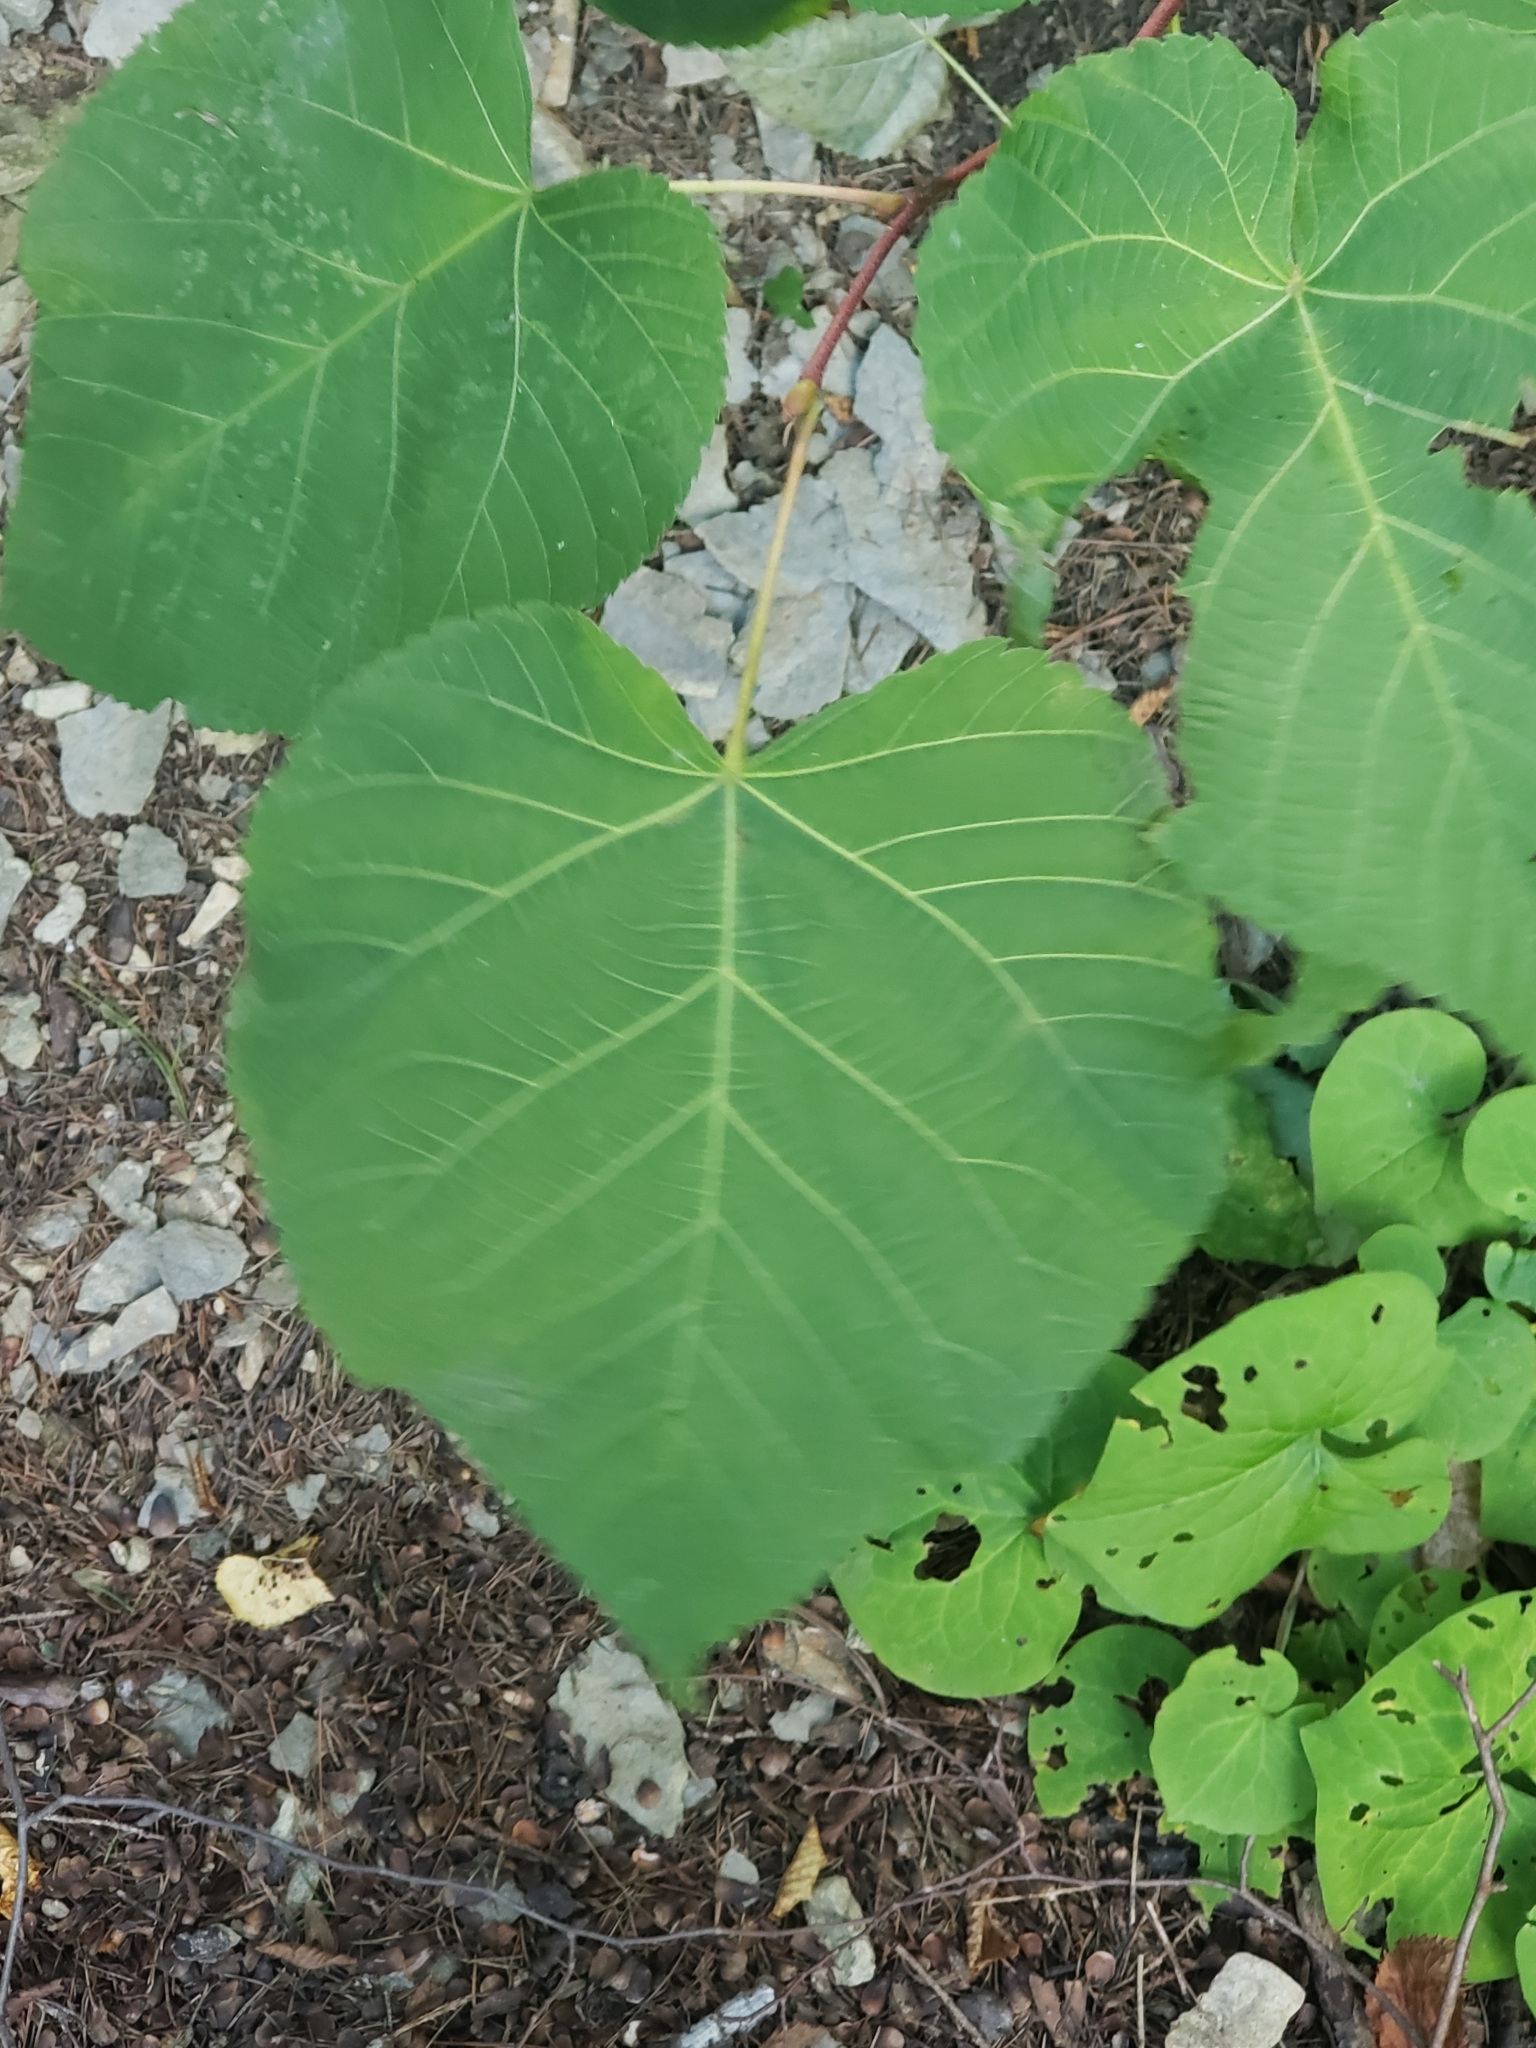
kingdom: Plantae
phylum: Tracheophyta
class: Magnoliopsida
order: Malvales
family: Malvaceae
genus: Tilia
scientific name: Tilia americana
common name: Basswood
